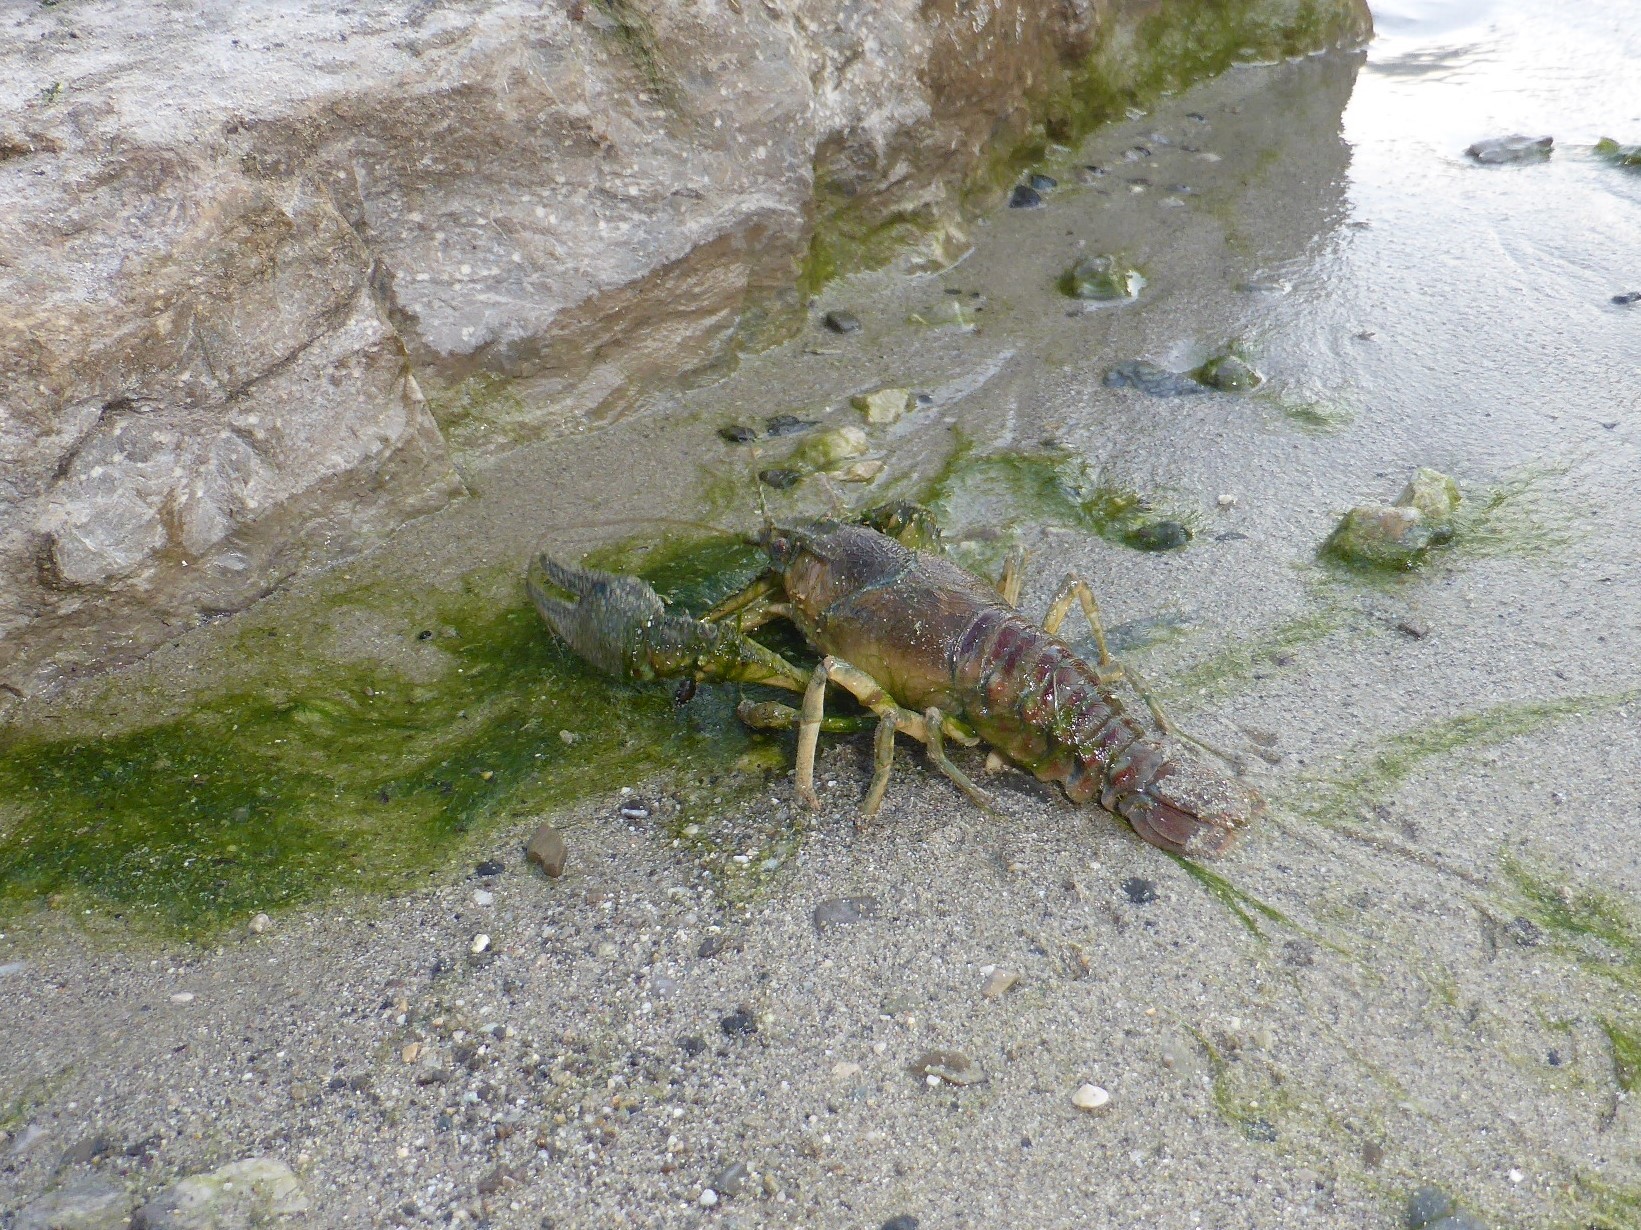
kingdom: Animalia
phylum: Arthropoda
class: Malacostraca
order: Decapoda
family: Cambaridae
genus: Faxonius
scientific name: Faxonius limosus
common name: American crayfish
